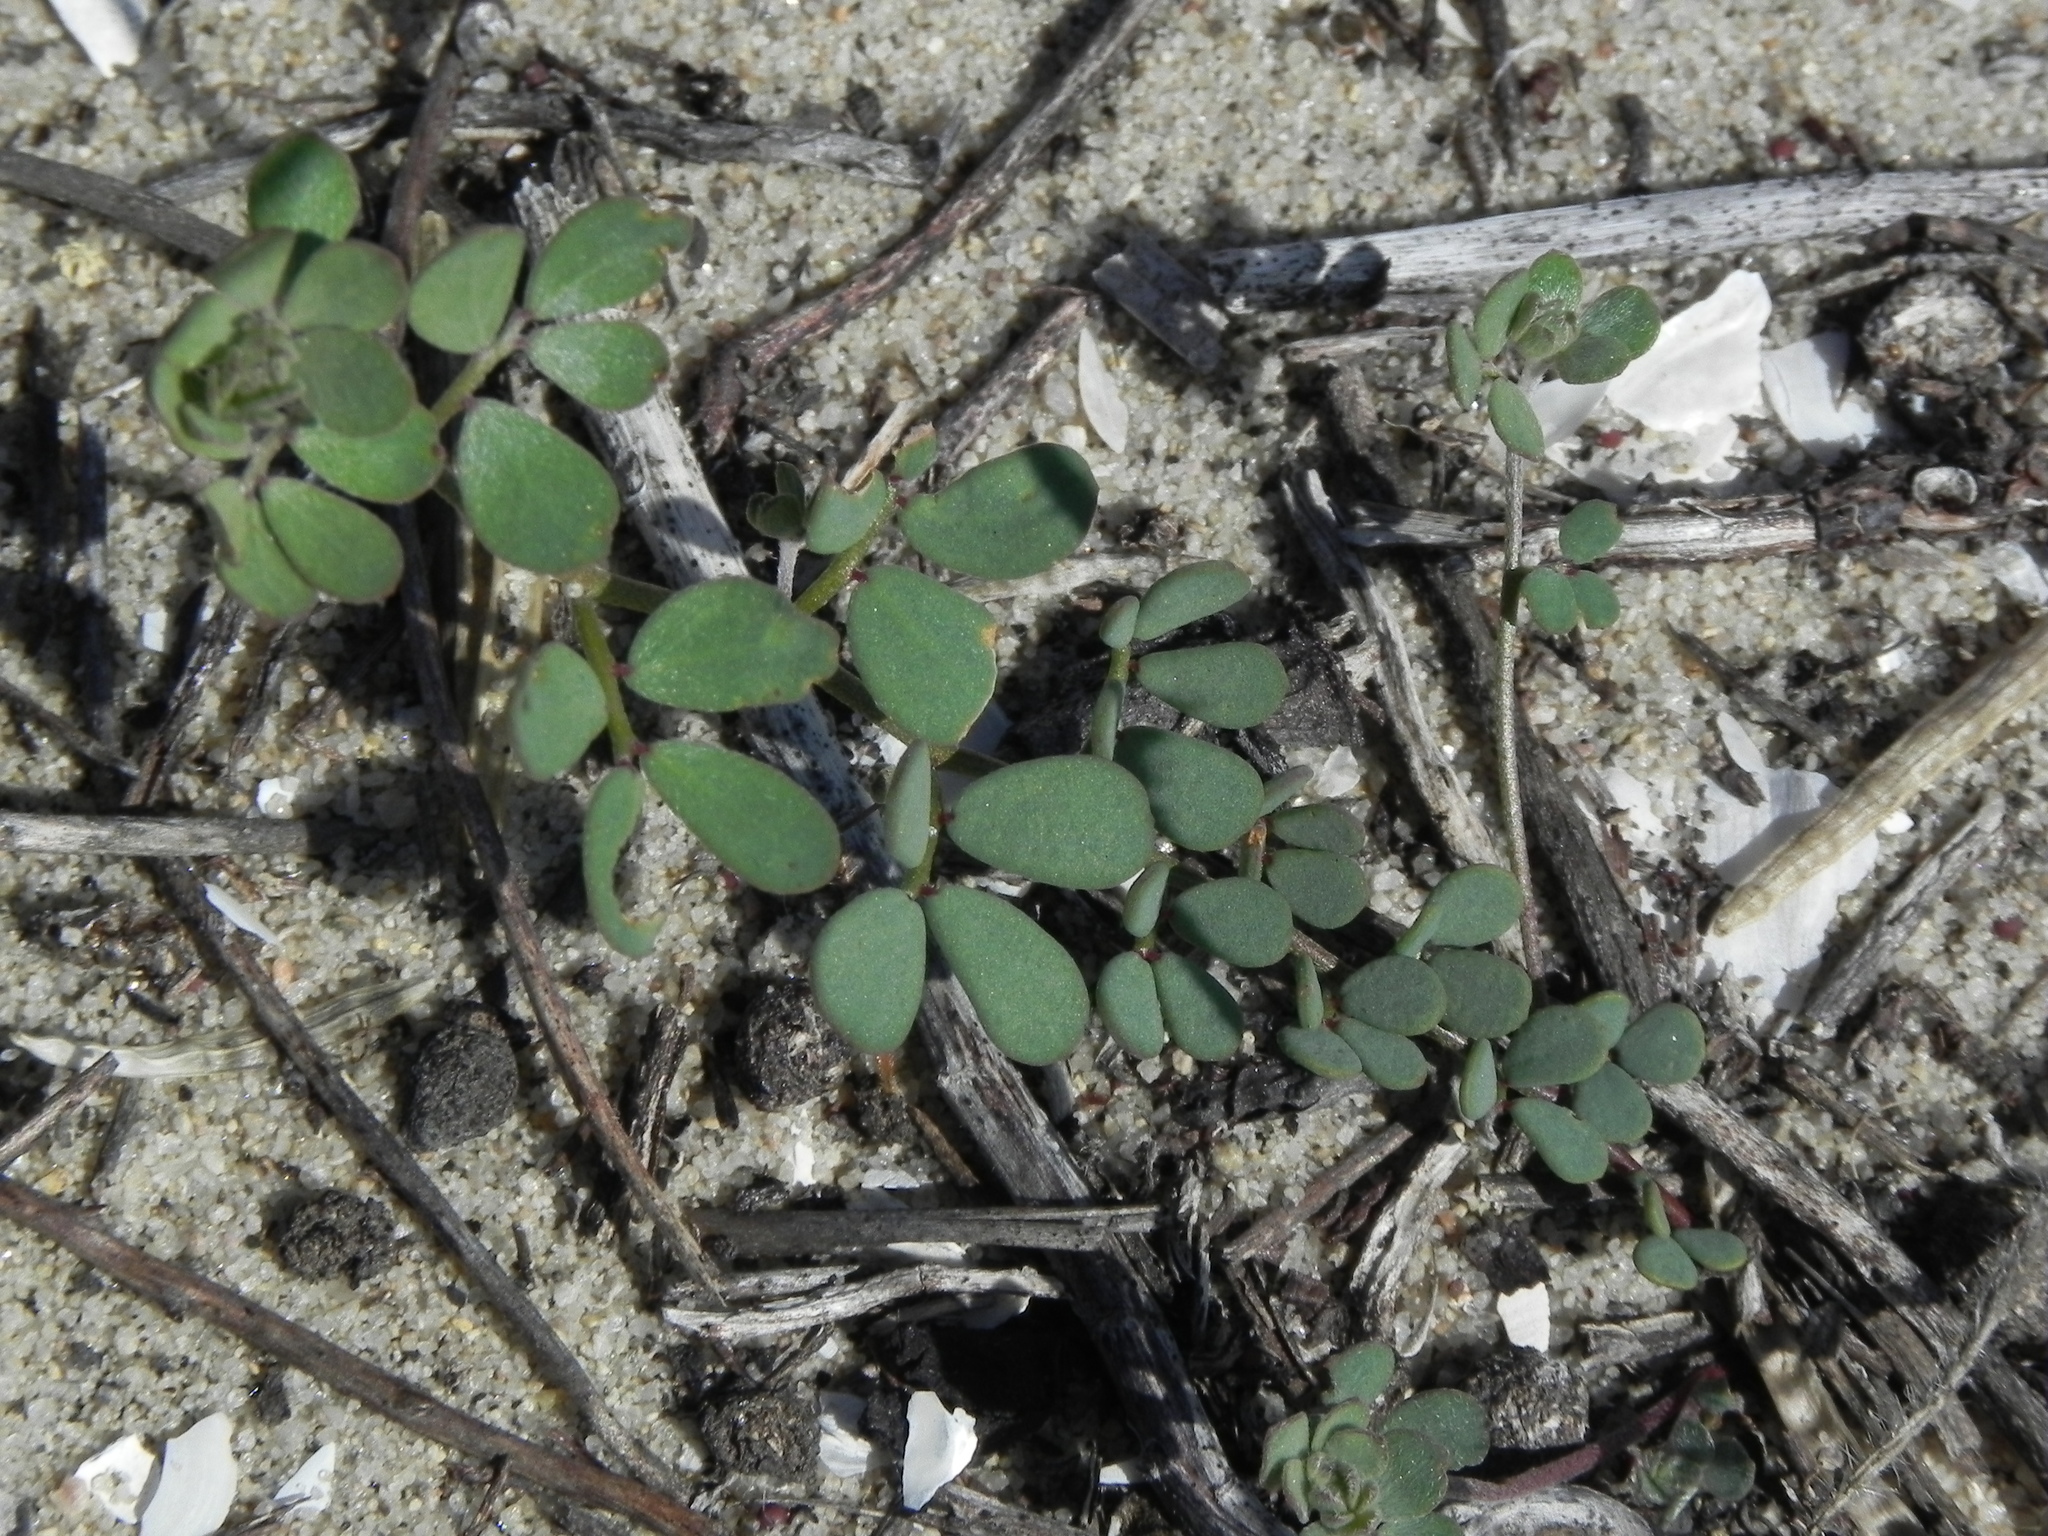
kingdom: Plantae
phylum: Tracheophyta
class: Magnoliopsida
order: Fabales
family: Fabaceae
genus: Acmispon
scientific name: Acmispon prostratus
